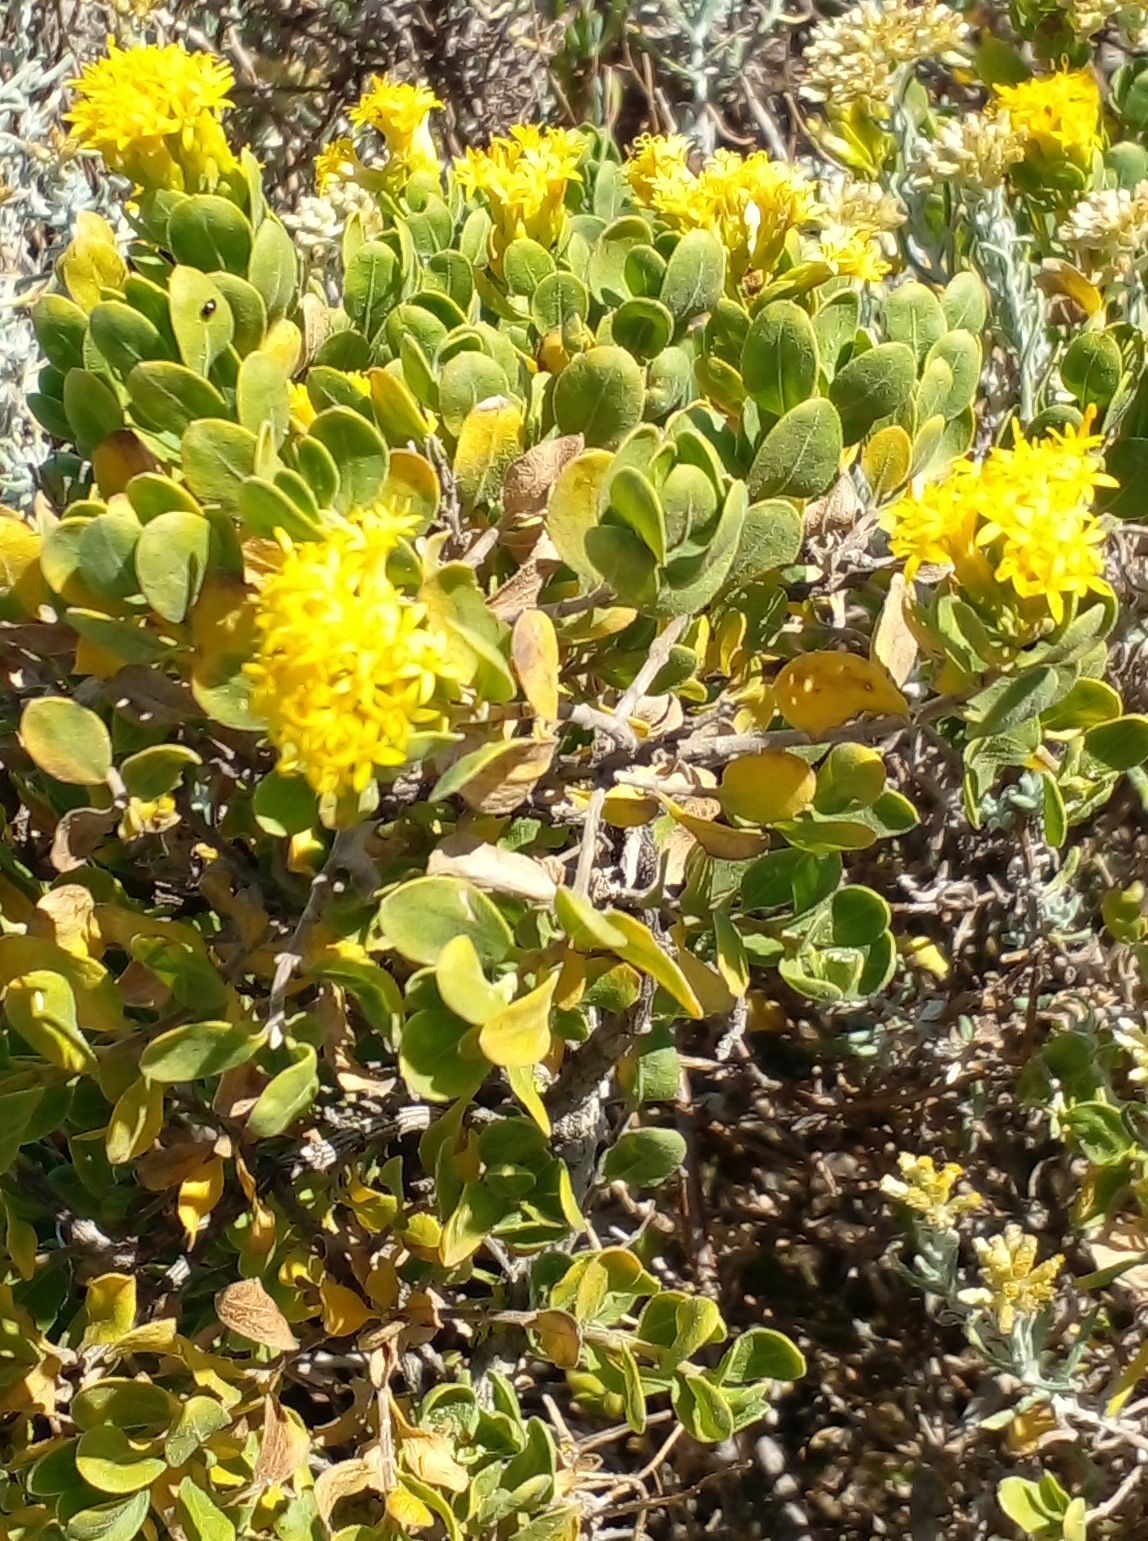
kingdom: Plantae
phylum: Tracheophyta
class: Magnoliopsida
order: Asterales
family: Asteraceae
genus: Pteronia
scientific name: Pteronia divaricata
